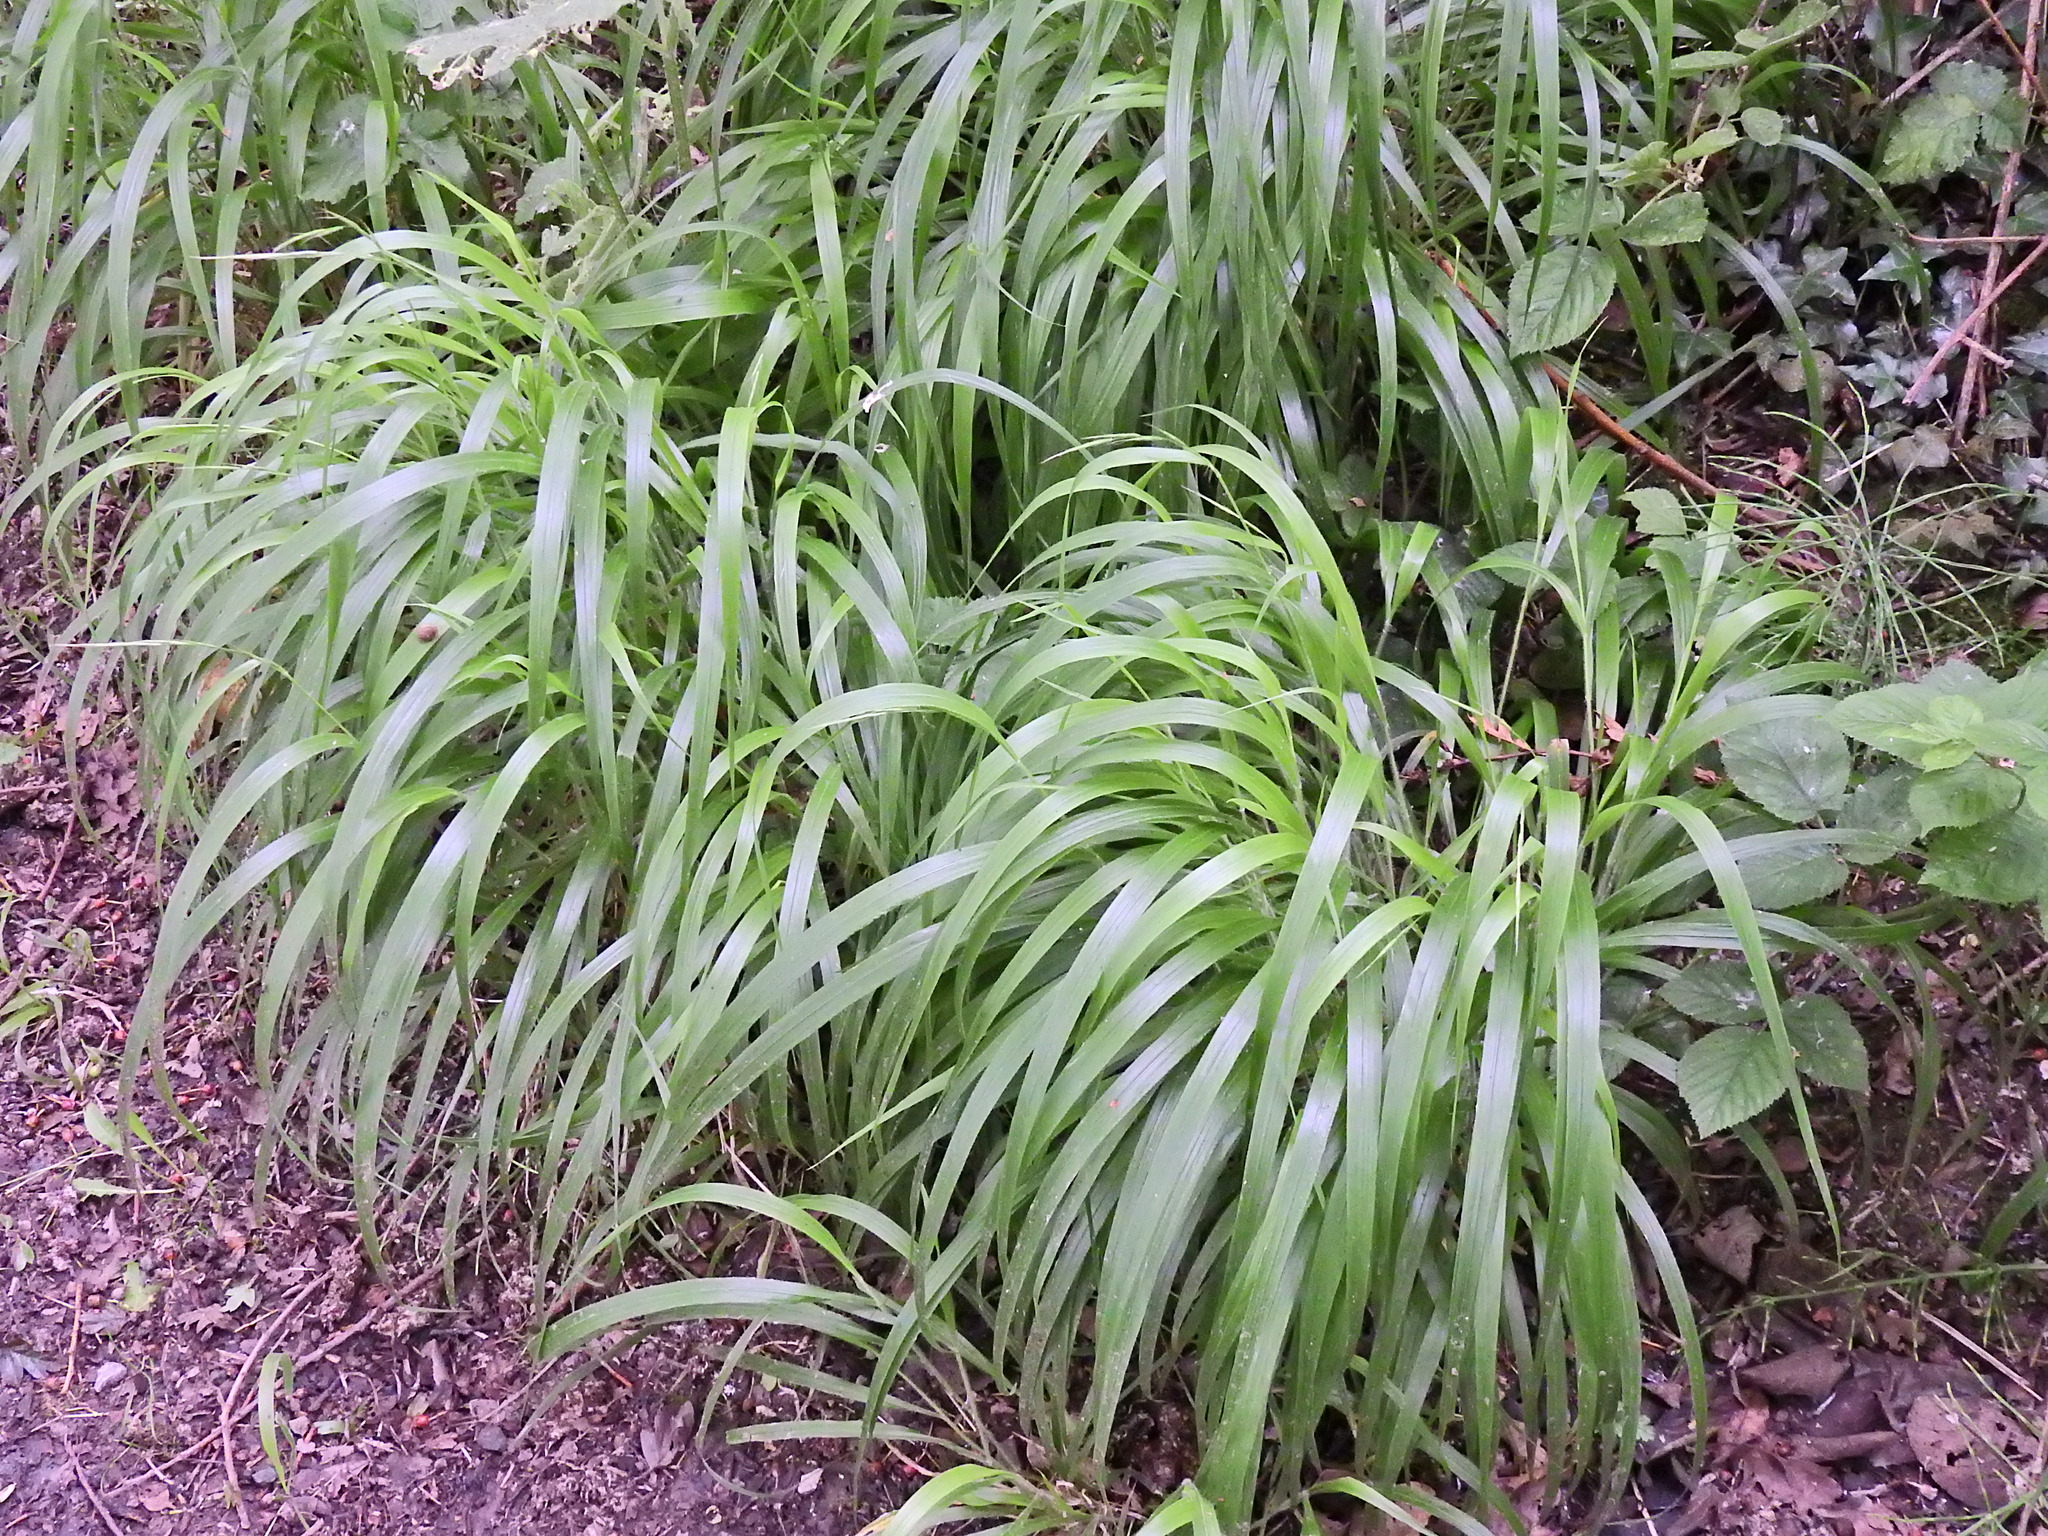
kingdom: Plantae
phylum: Tracheophyta
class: Liliopsida
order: Poales
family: Poaceae
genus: Brachypodium
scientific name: Brachypodium sylvaticum
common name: False-brome
